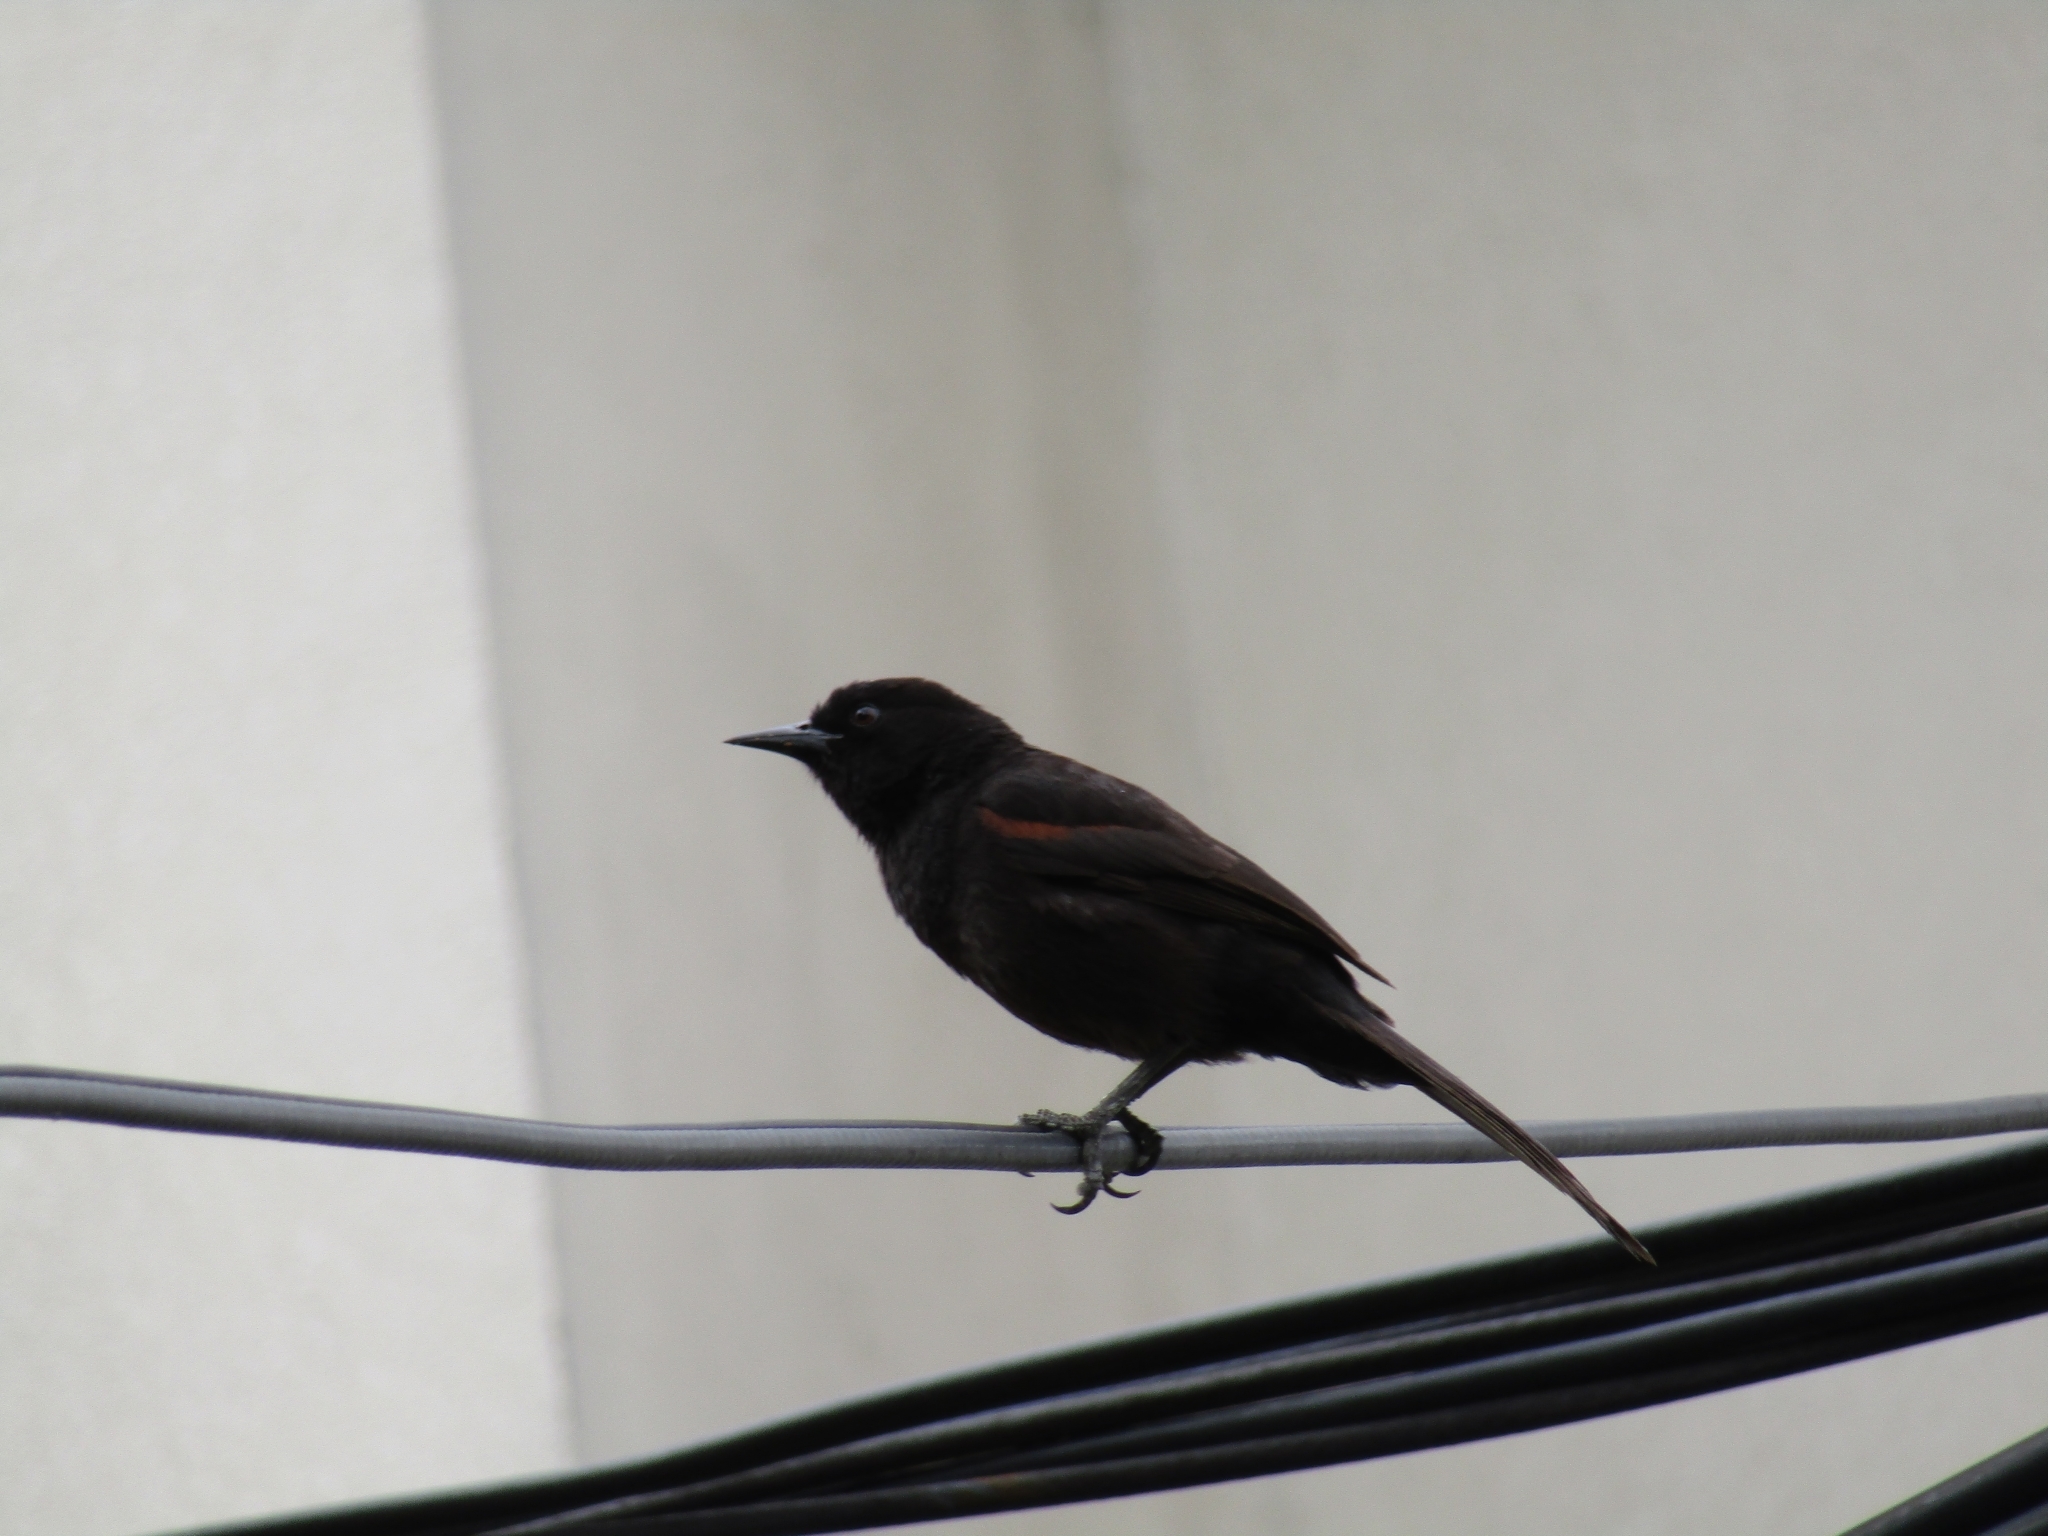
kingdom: Animalia
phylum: Chordata
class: Aves
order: Passeriformes
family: Icteridae
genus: Icterus
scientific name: Icterus cayanensis
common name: Epaulet oriole
